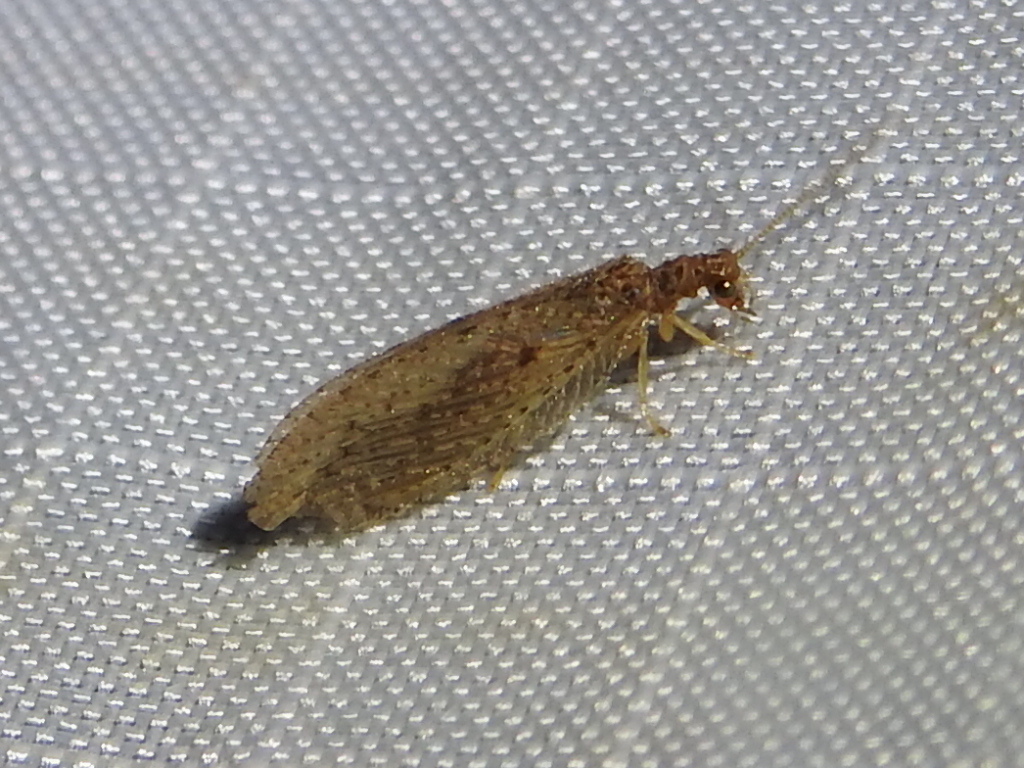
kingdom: Animalia
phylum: Arthropoda
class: Insecta
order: Neuroptera
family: Hemerobiidae
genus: Micromus
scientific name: Micromus subanticus
